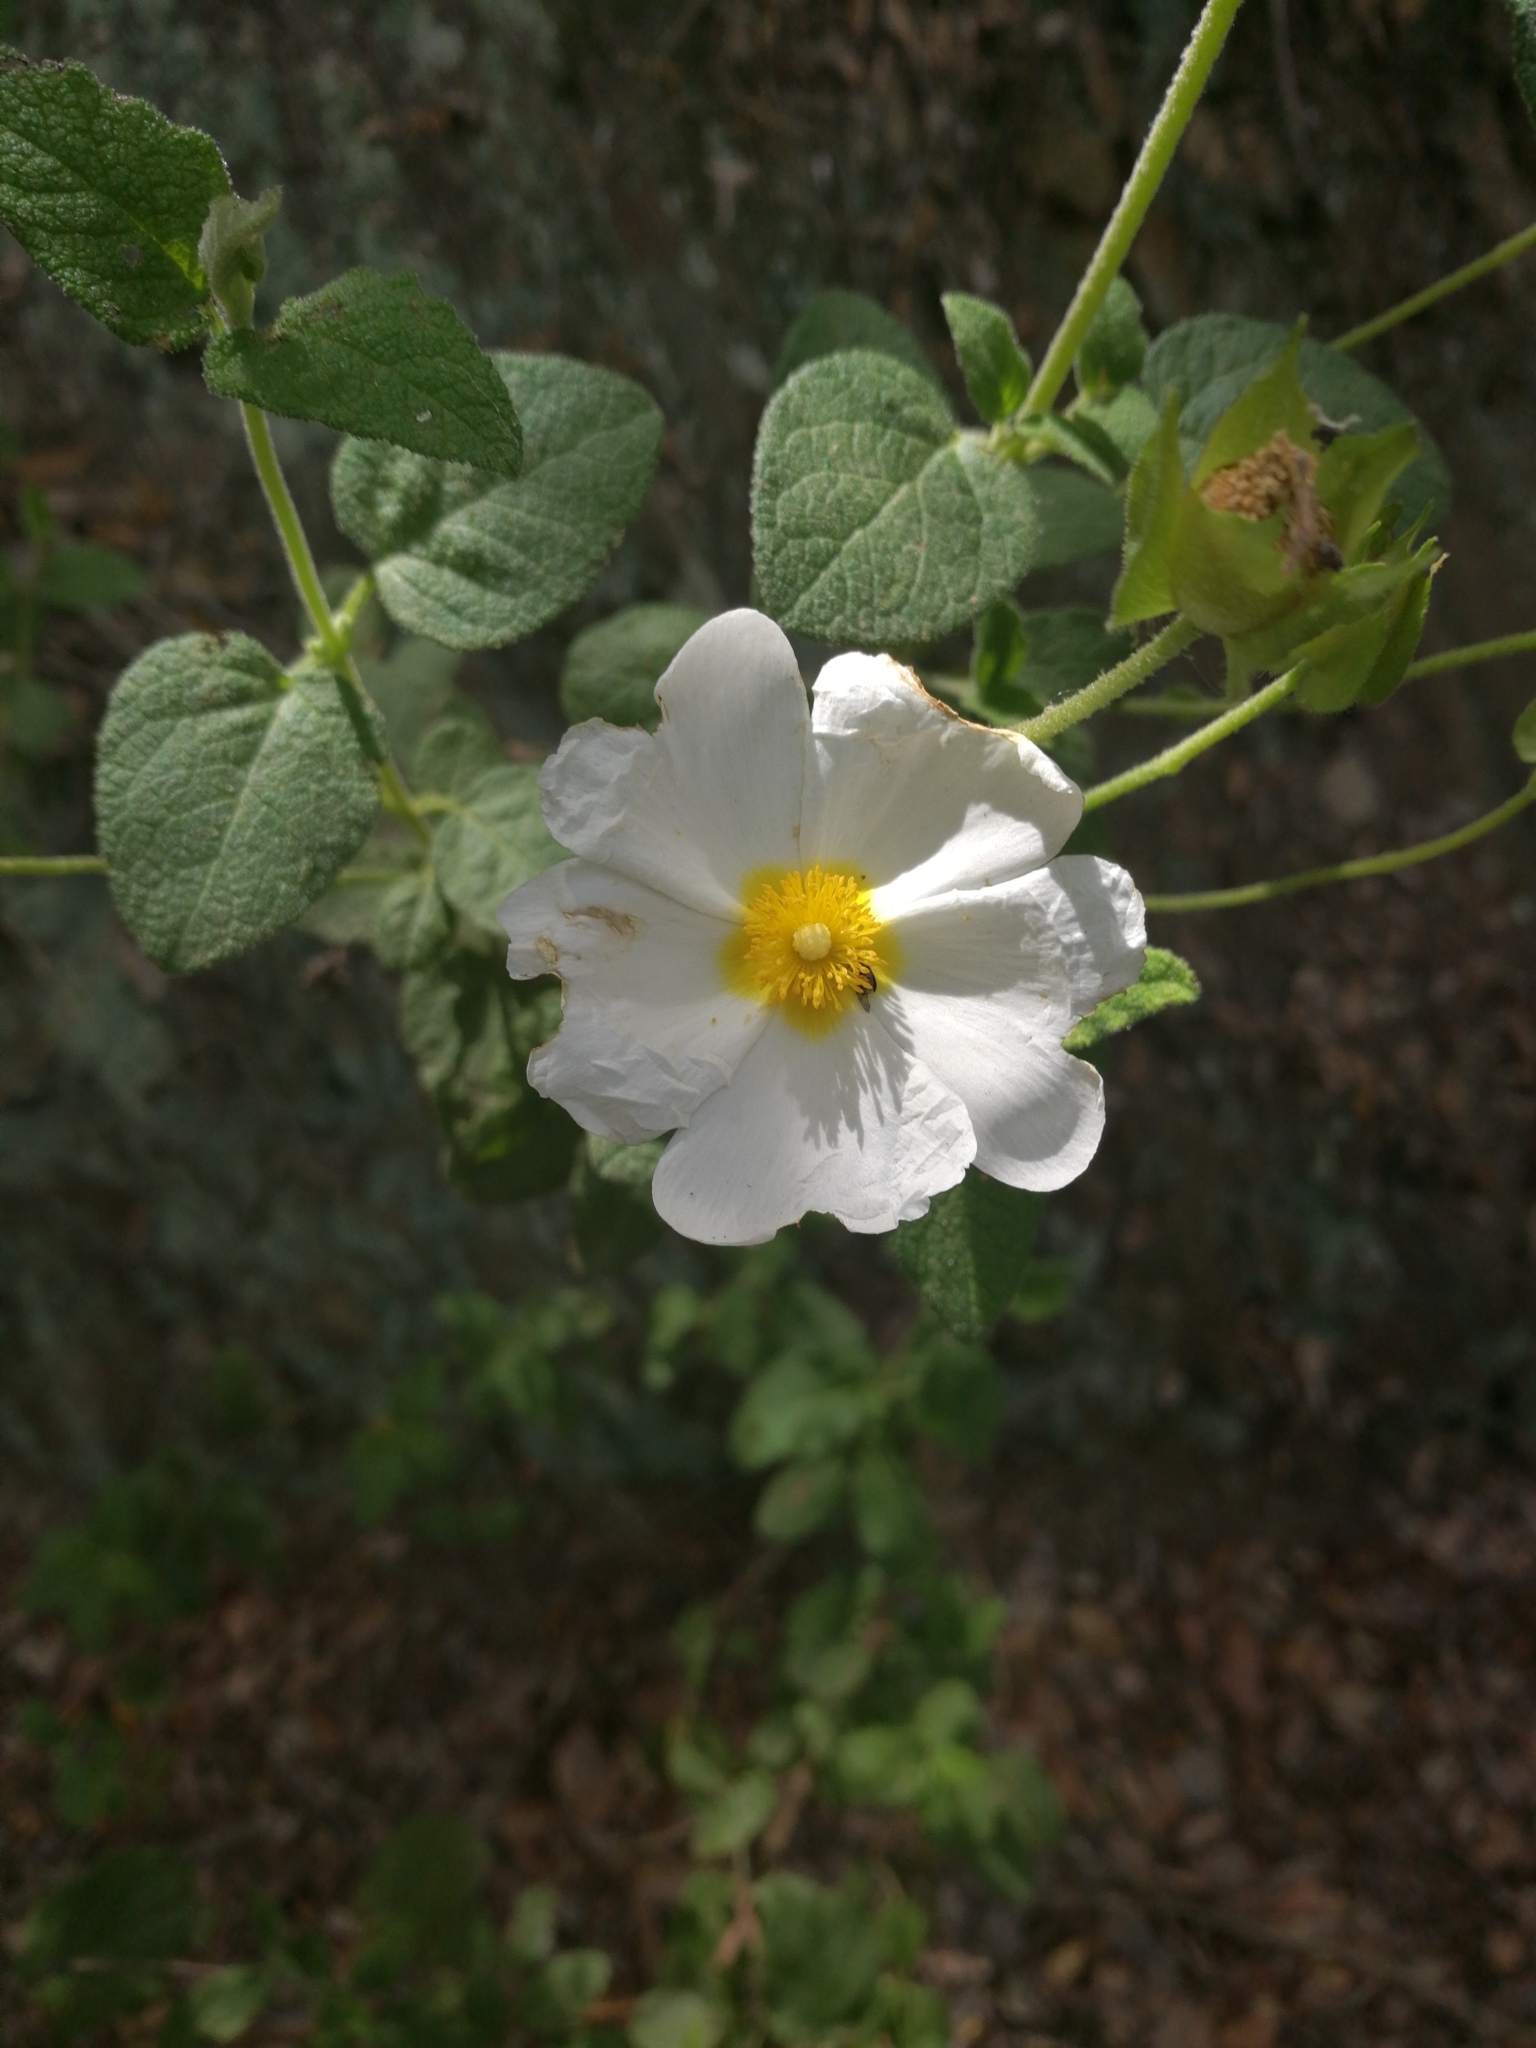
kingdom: Plantae
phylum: Tracheophyta
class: Magnoliopsida
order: Malvales
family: Cistaceae
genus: Cistus
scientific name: Cistus salviifolius
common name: Salvia cistus
